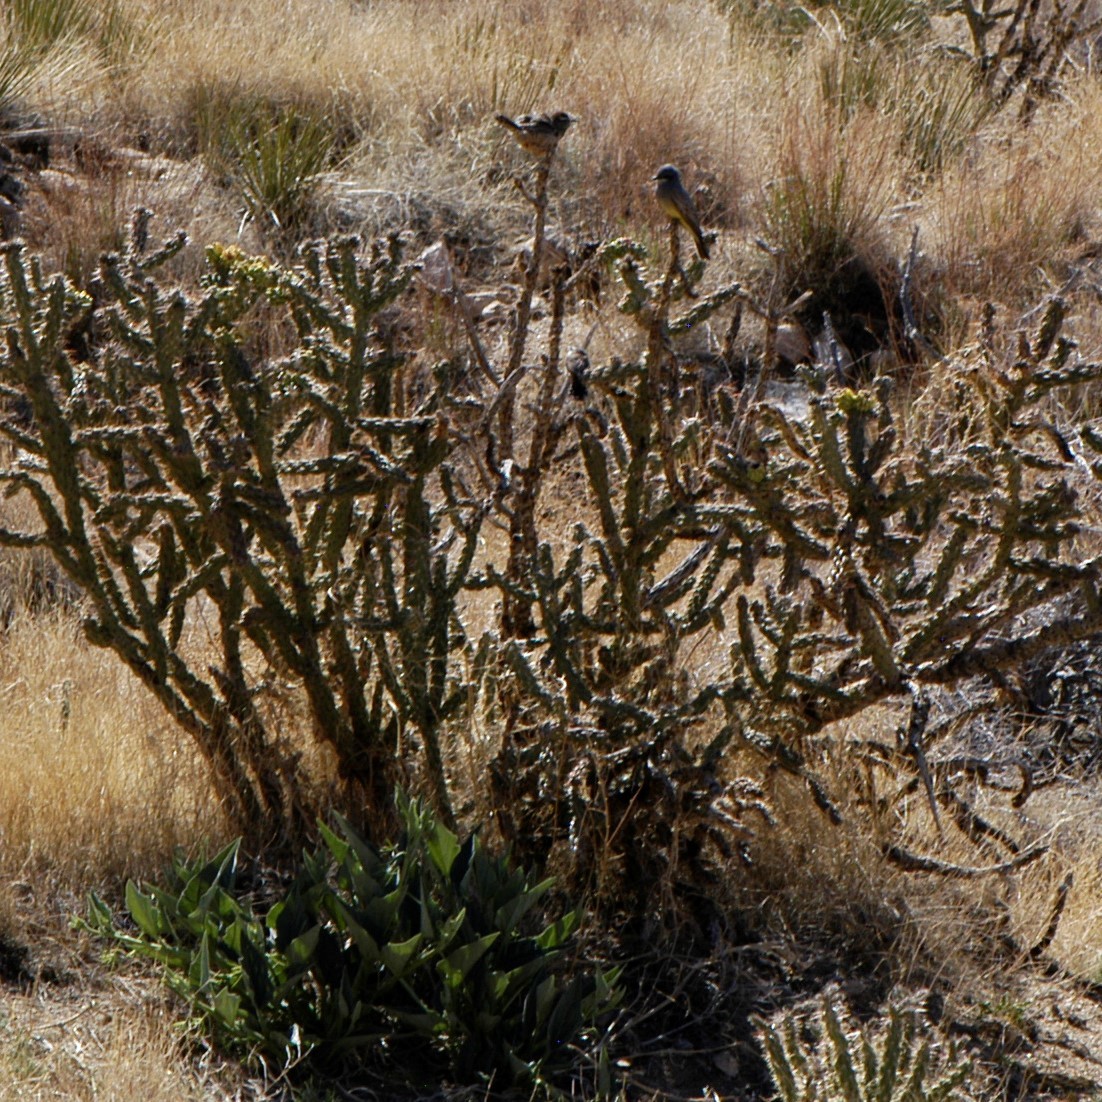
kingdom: Animalia
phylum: Chordata
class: Aves
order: Passeriformes
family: Troglodytidae
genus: Campylorhynchus
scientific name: Campylorhynchus brunneicapillus
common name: Cactus wren
